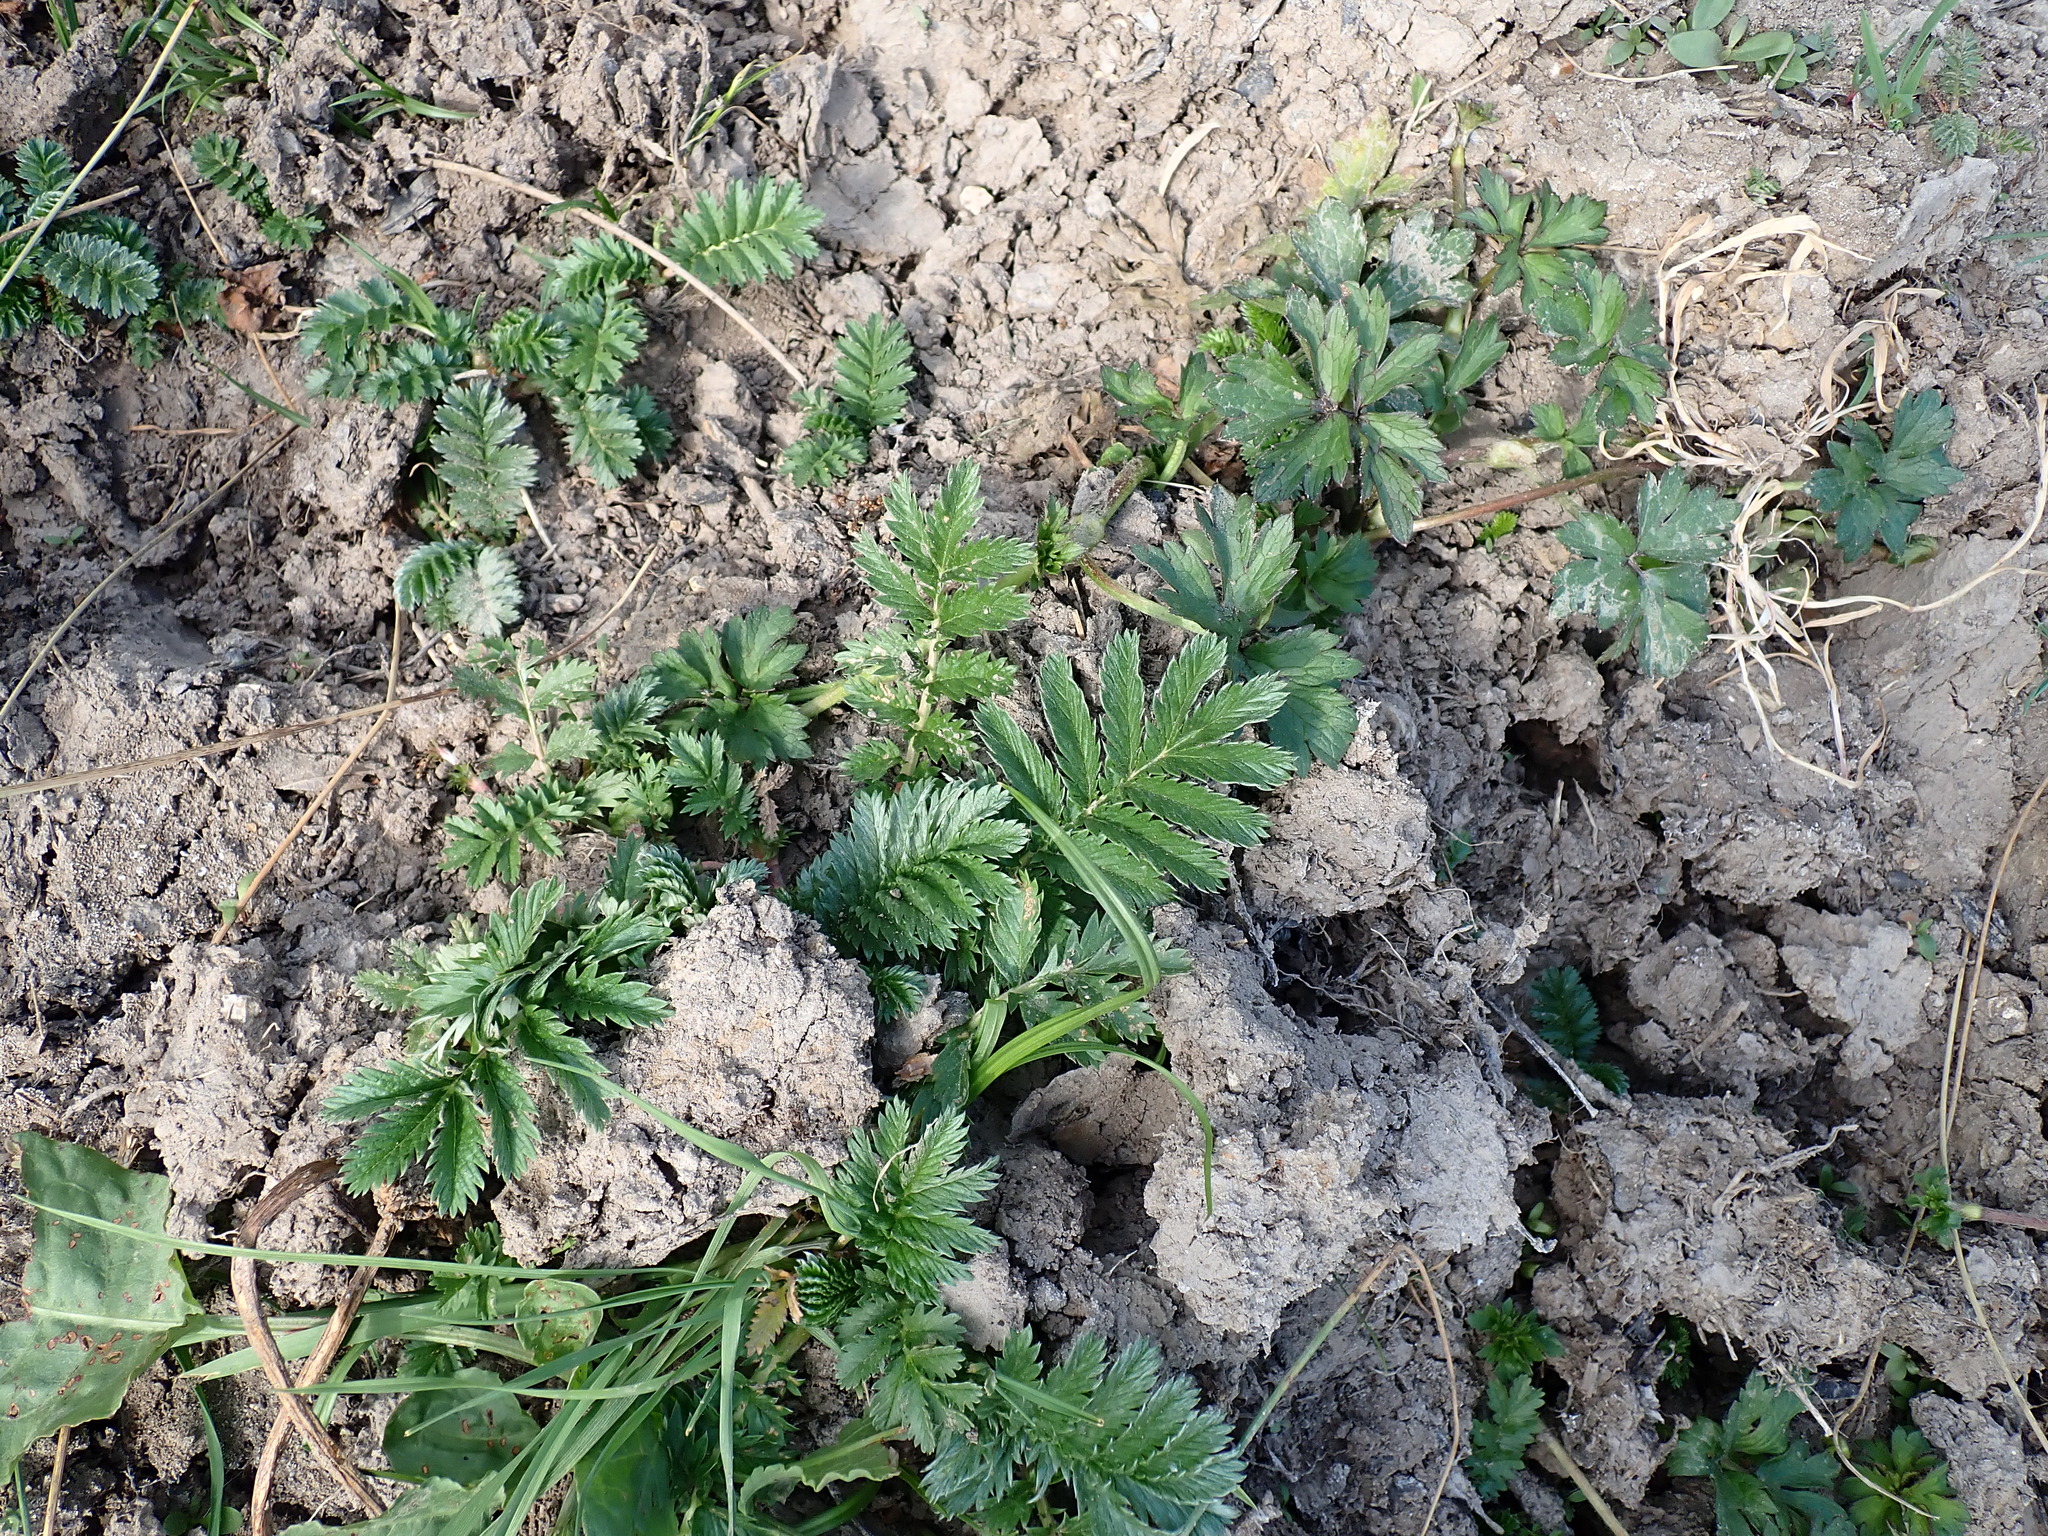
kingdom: Plantae
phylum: Tracheophyta
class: Magnoliopsida
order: Rosales
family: Rosaceae
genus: Argentina
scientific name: Argentina anserina
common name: Common silverweed
